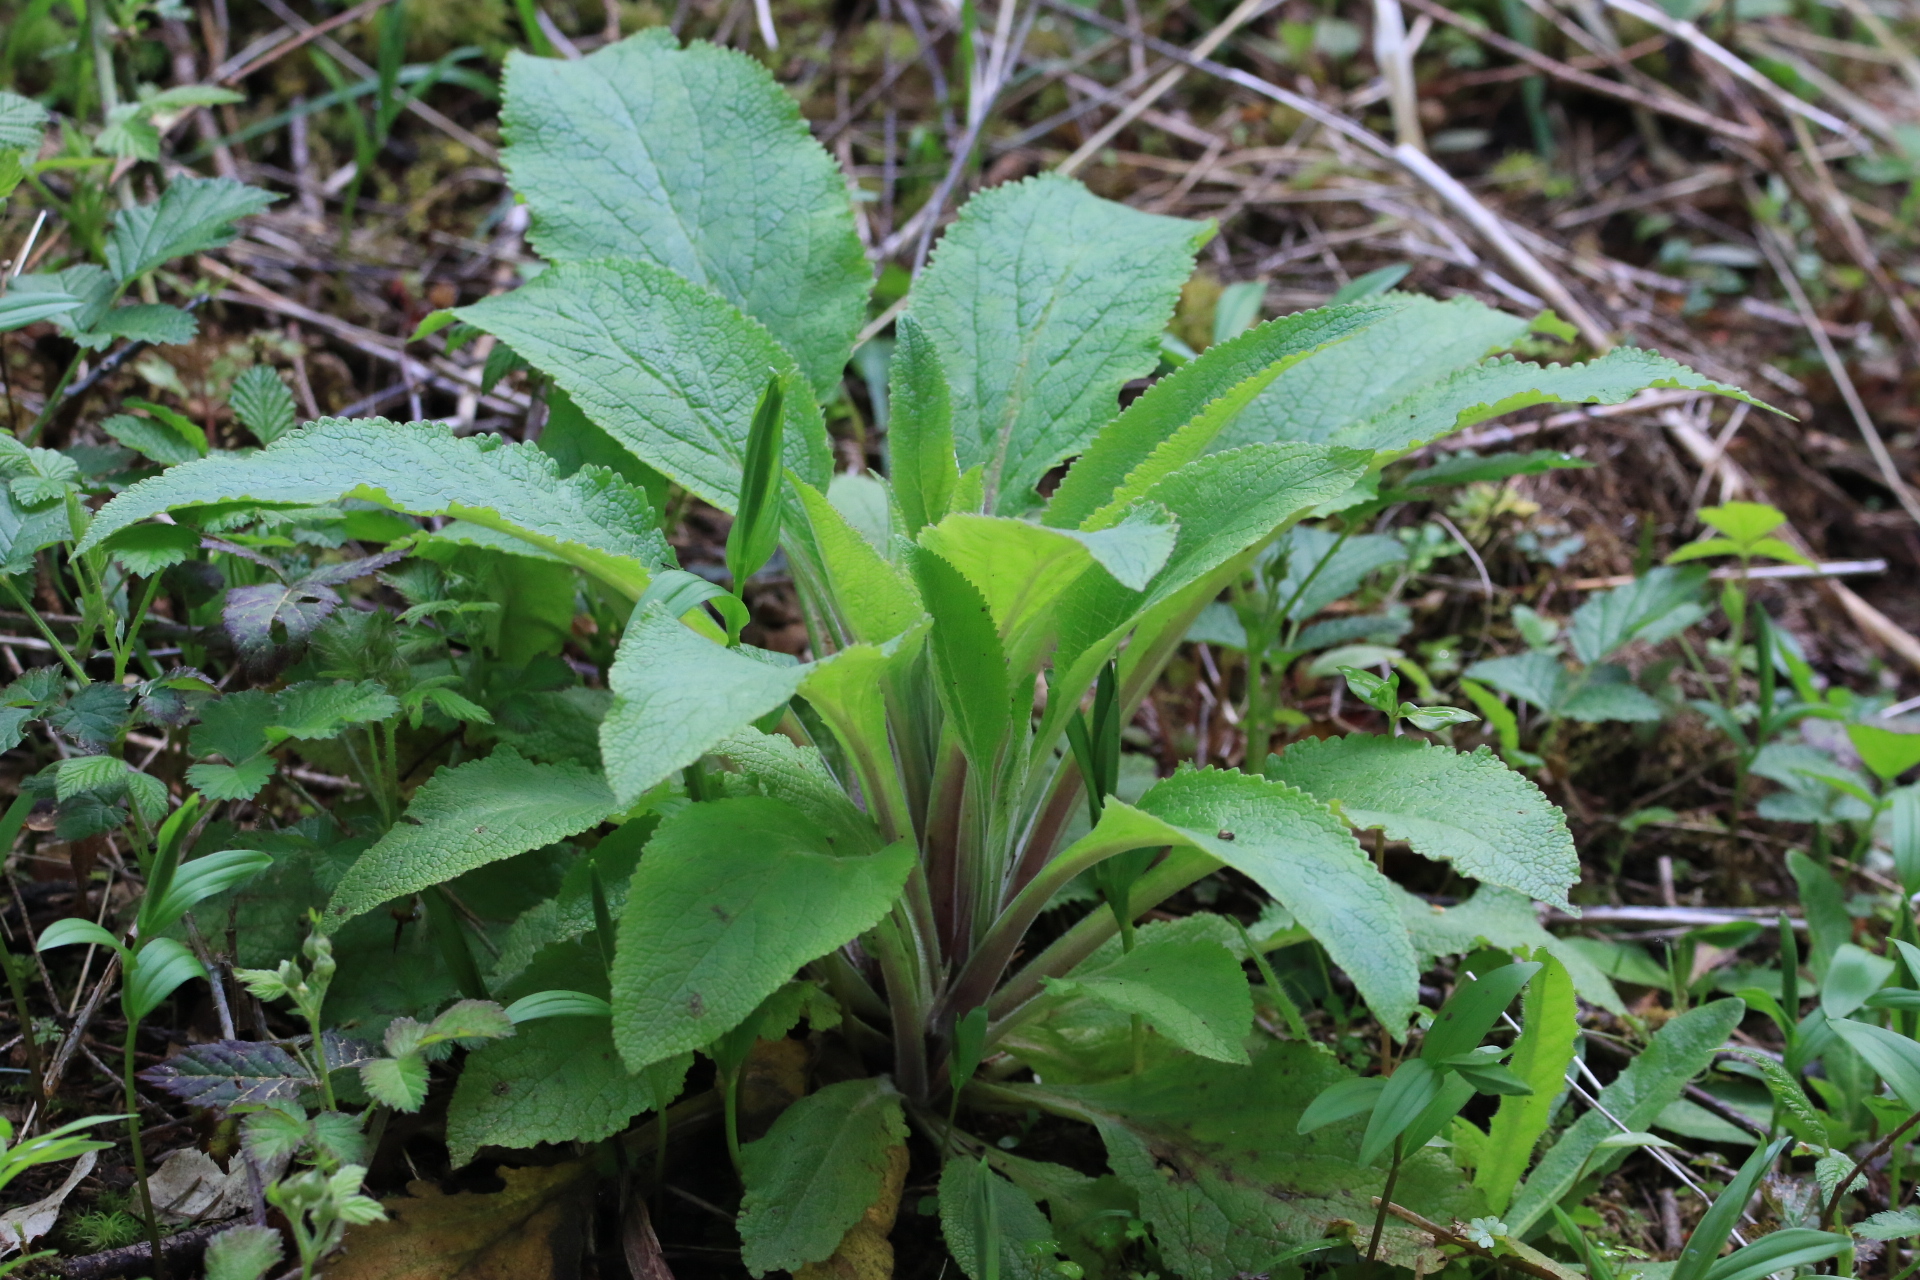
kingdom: Plantae
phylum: Tracheophyta
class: Magnoliopsida
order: Lamiales
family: Plantaginaceae
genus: Digitalis
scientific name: Digitalis purpurea
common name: Foxglove
